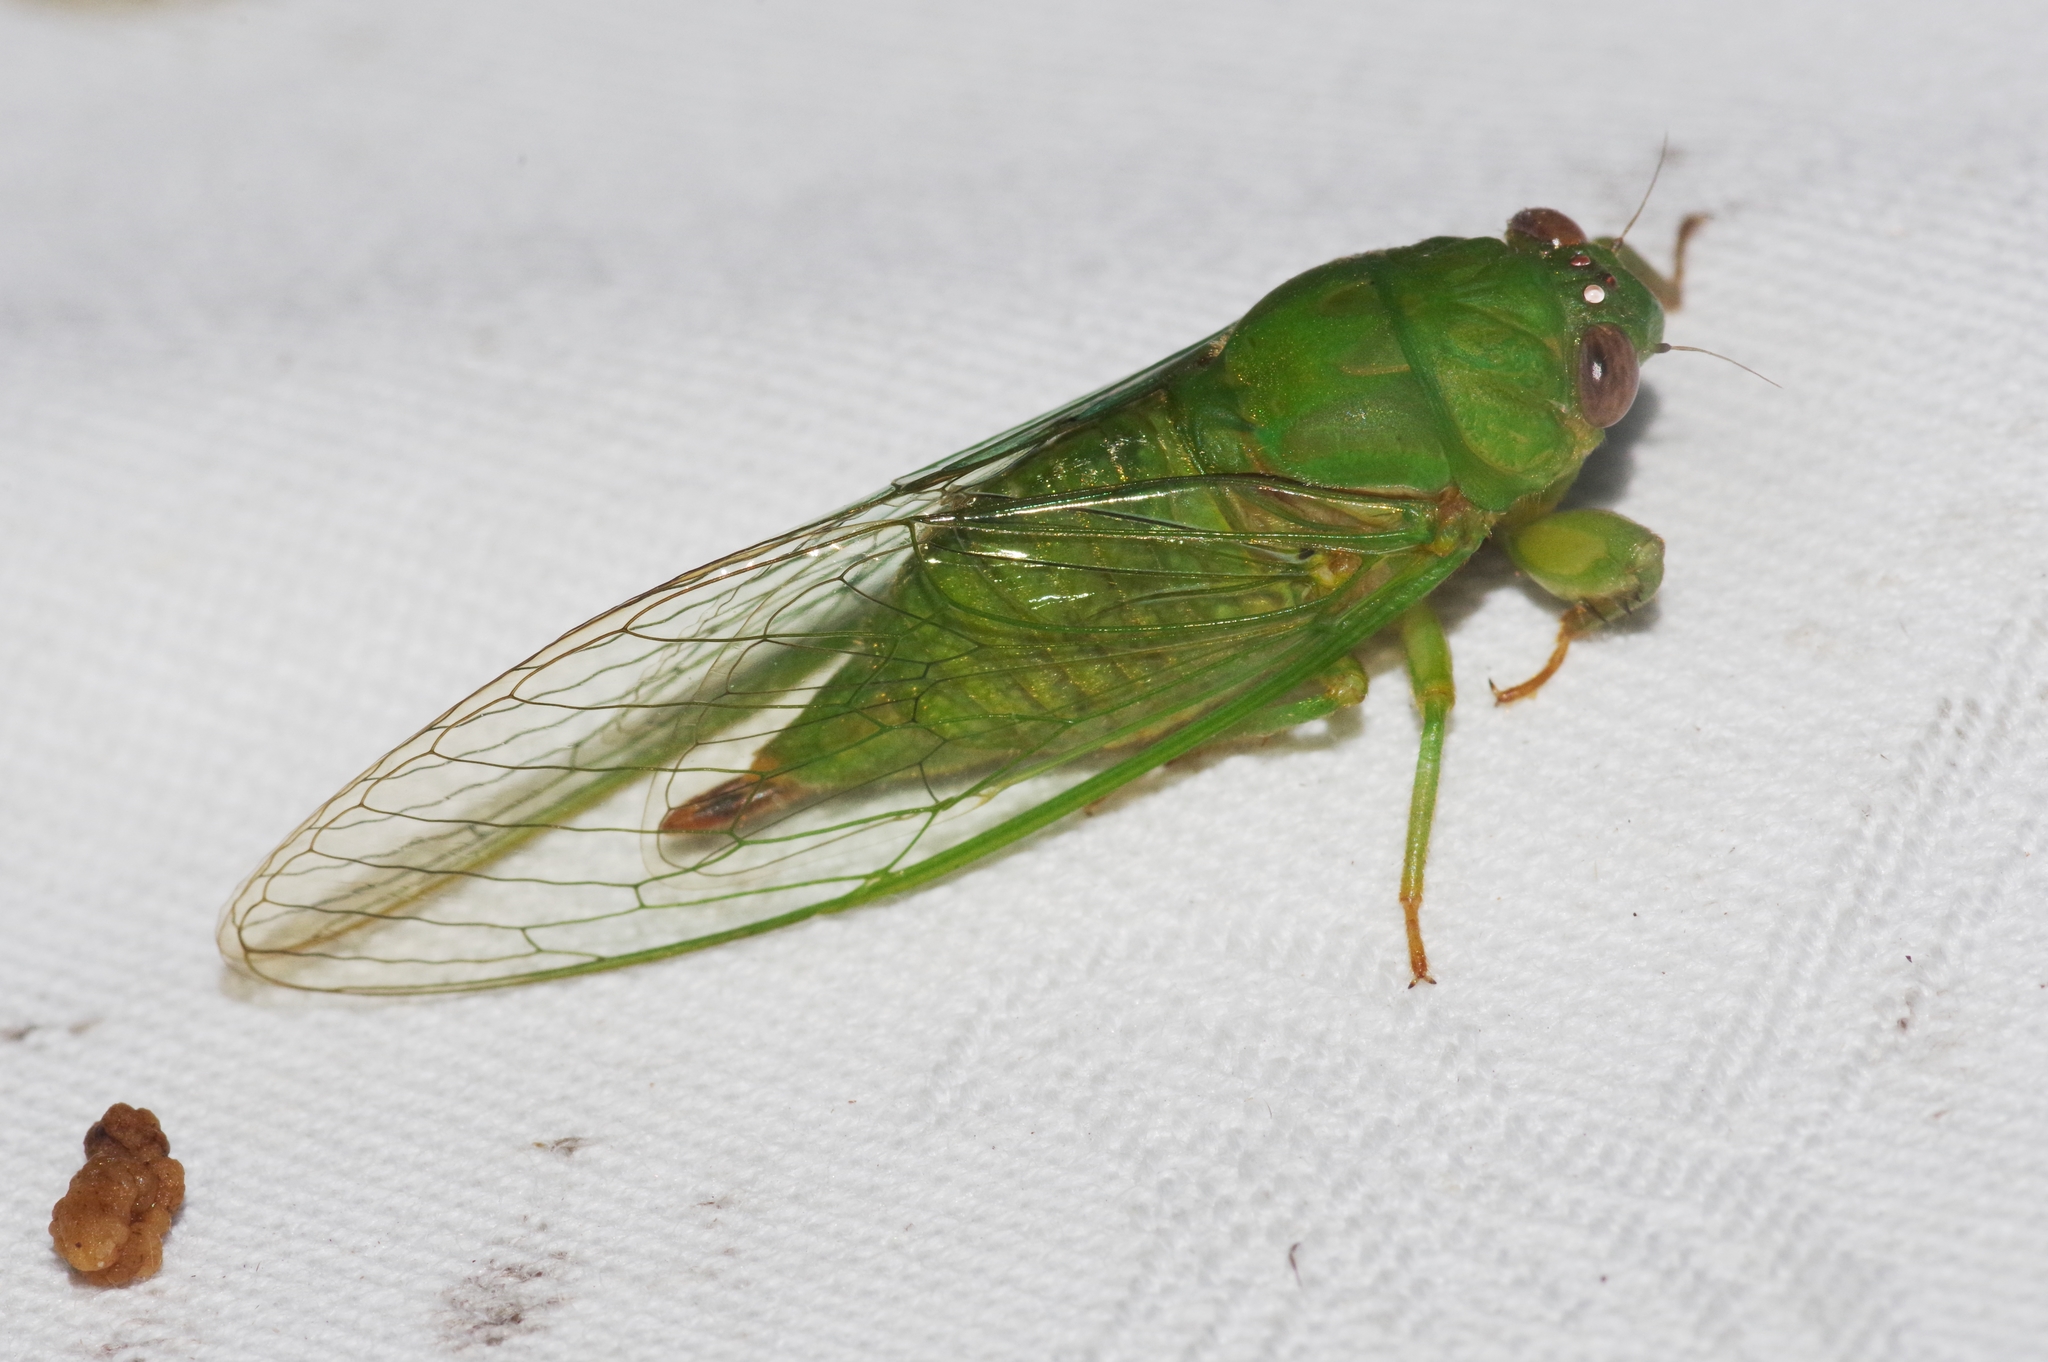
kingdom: Animalia
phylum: Arthropoda
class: Insecta
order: Hemiptera
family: Cicadidae
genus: Muda
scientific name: Muda kuroiwae
